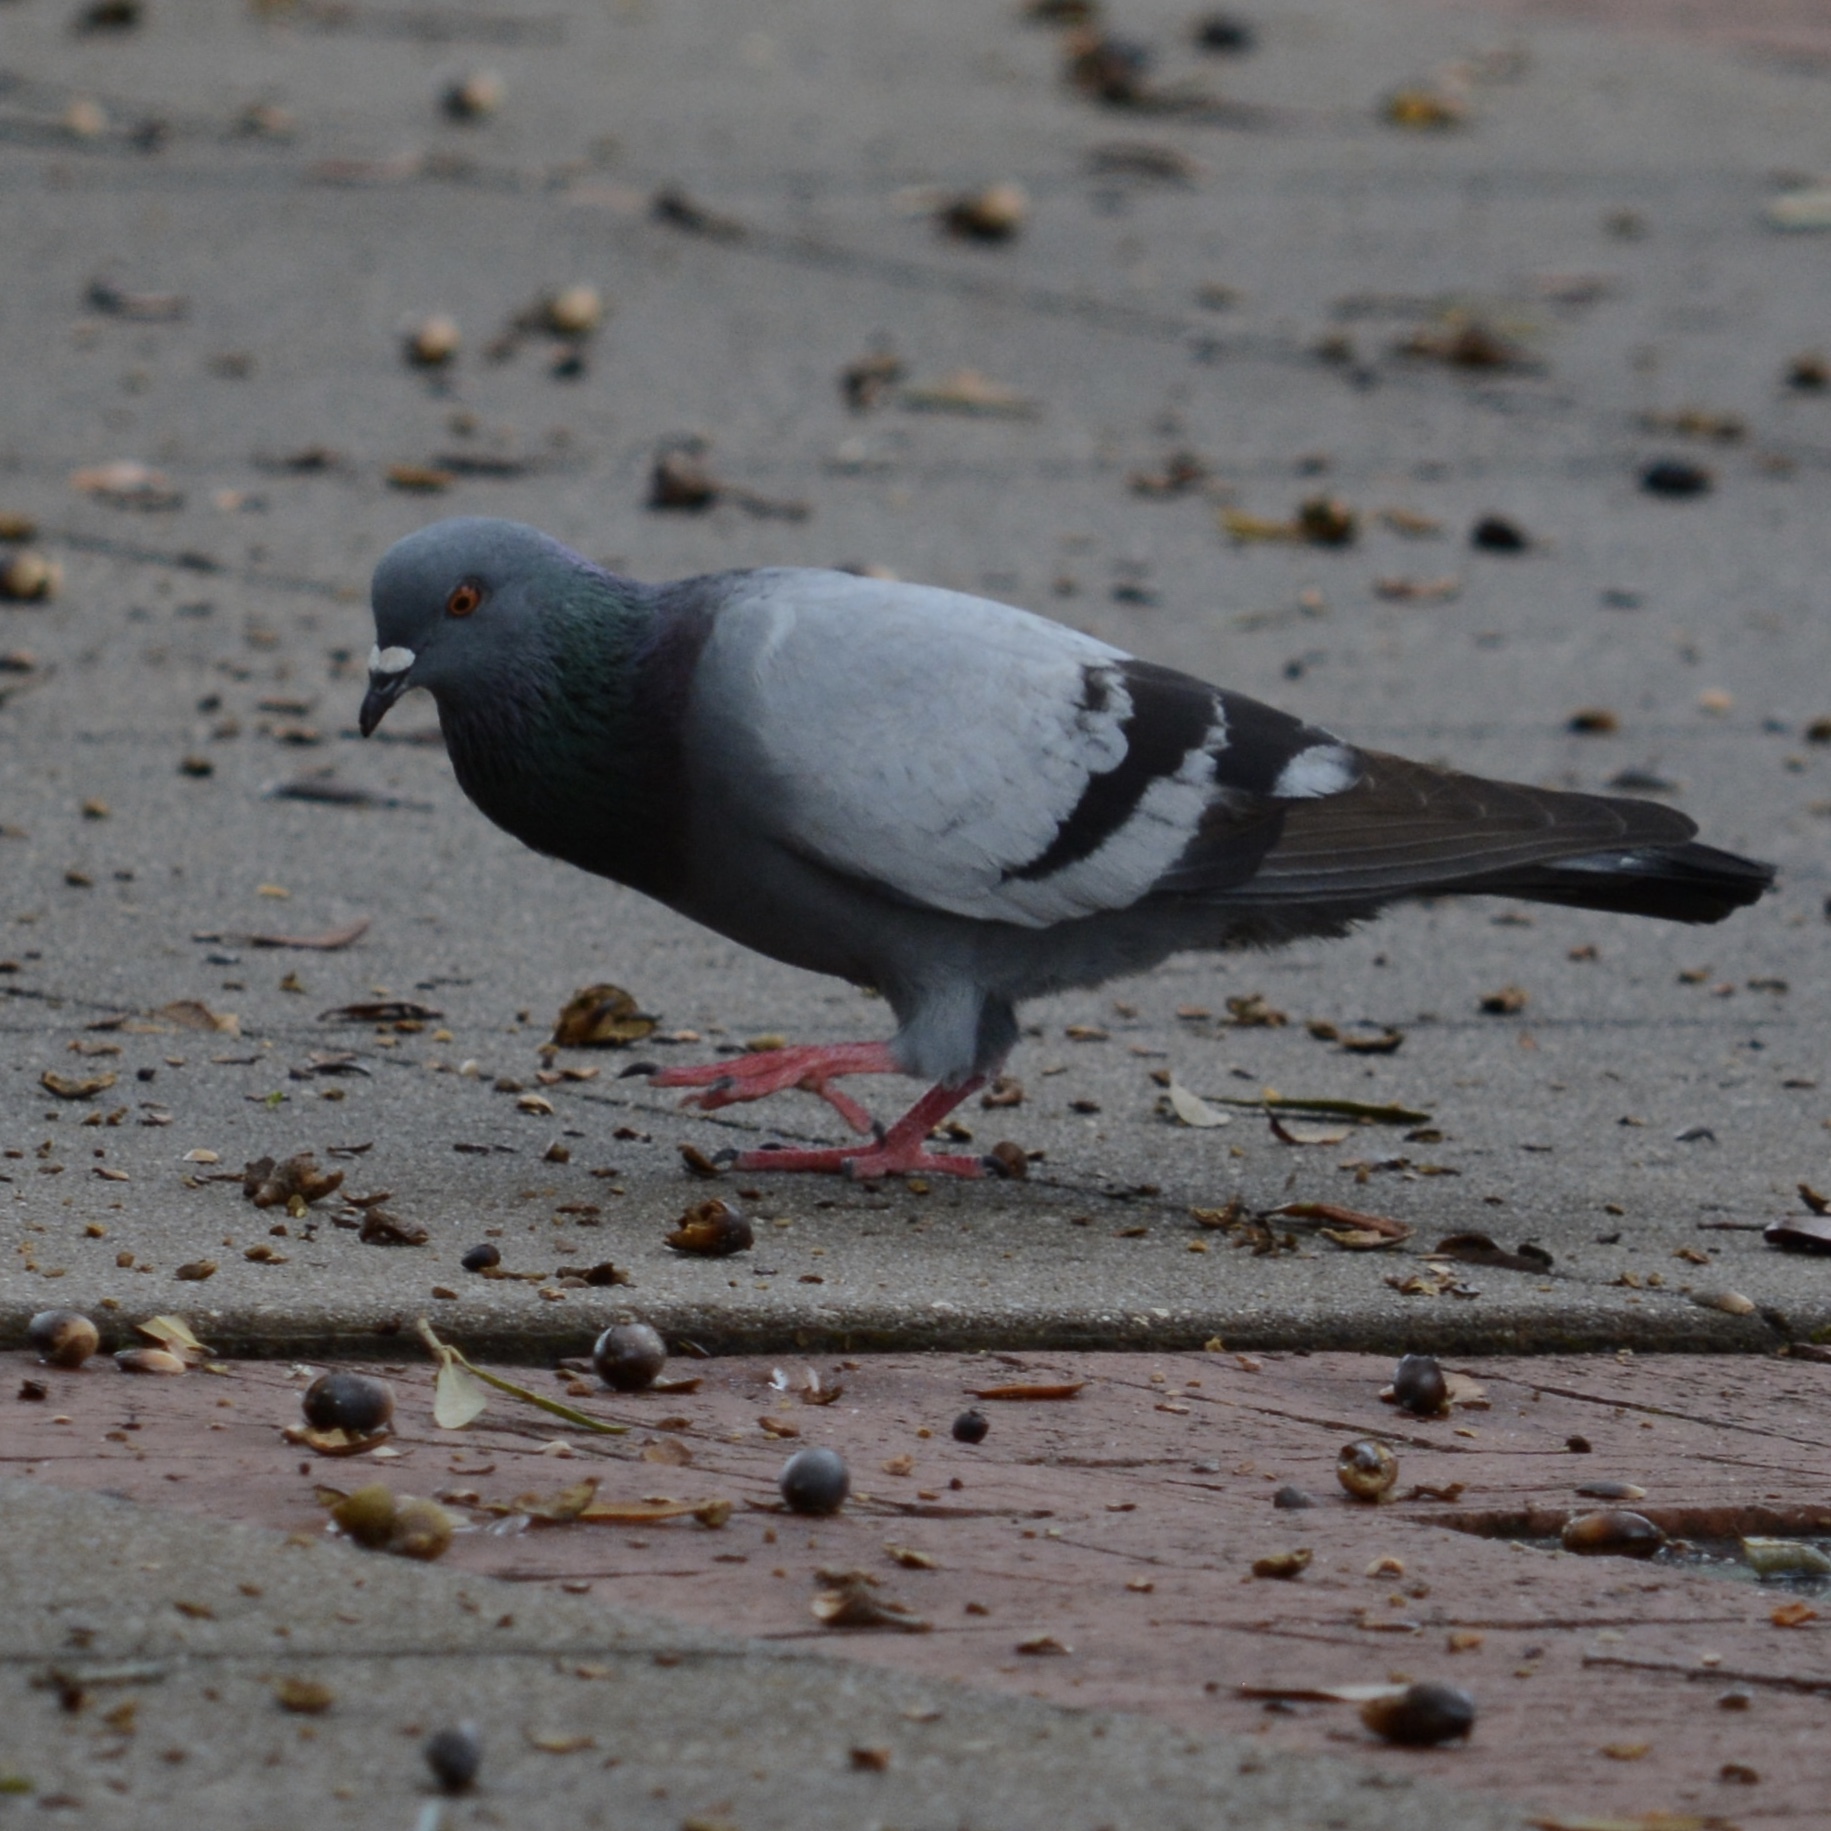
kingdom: Animalia
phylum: Chordata
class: Aves
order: Columbiformes
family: Columbidae
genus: Columba
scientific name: Columba livia
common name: Rock pigeon
